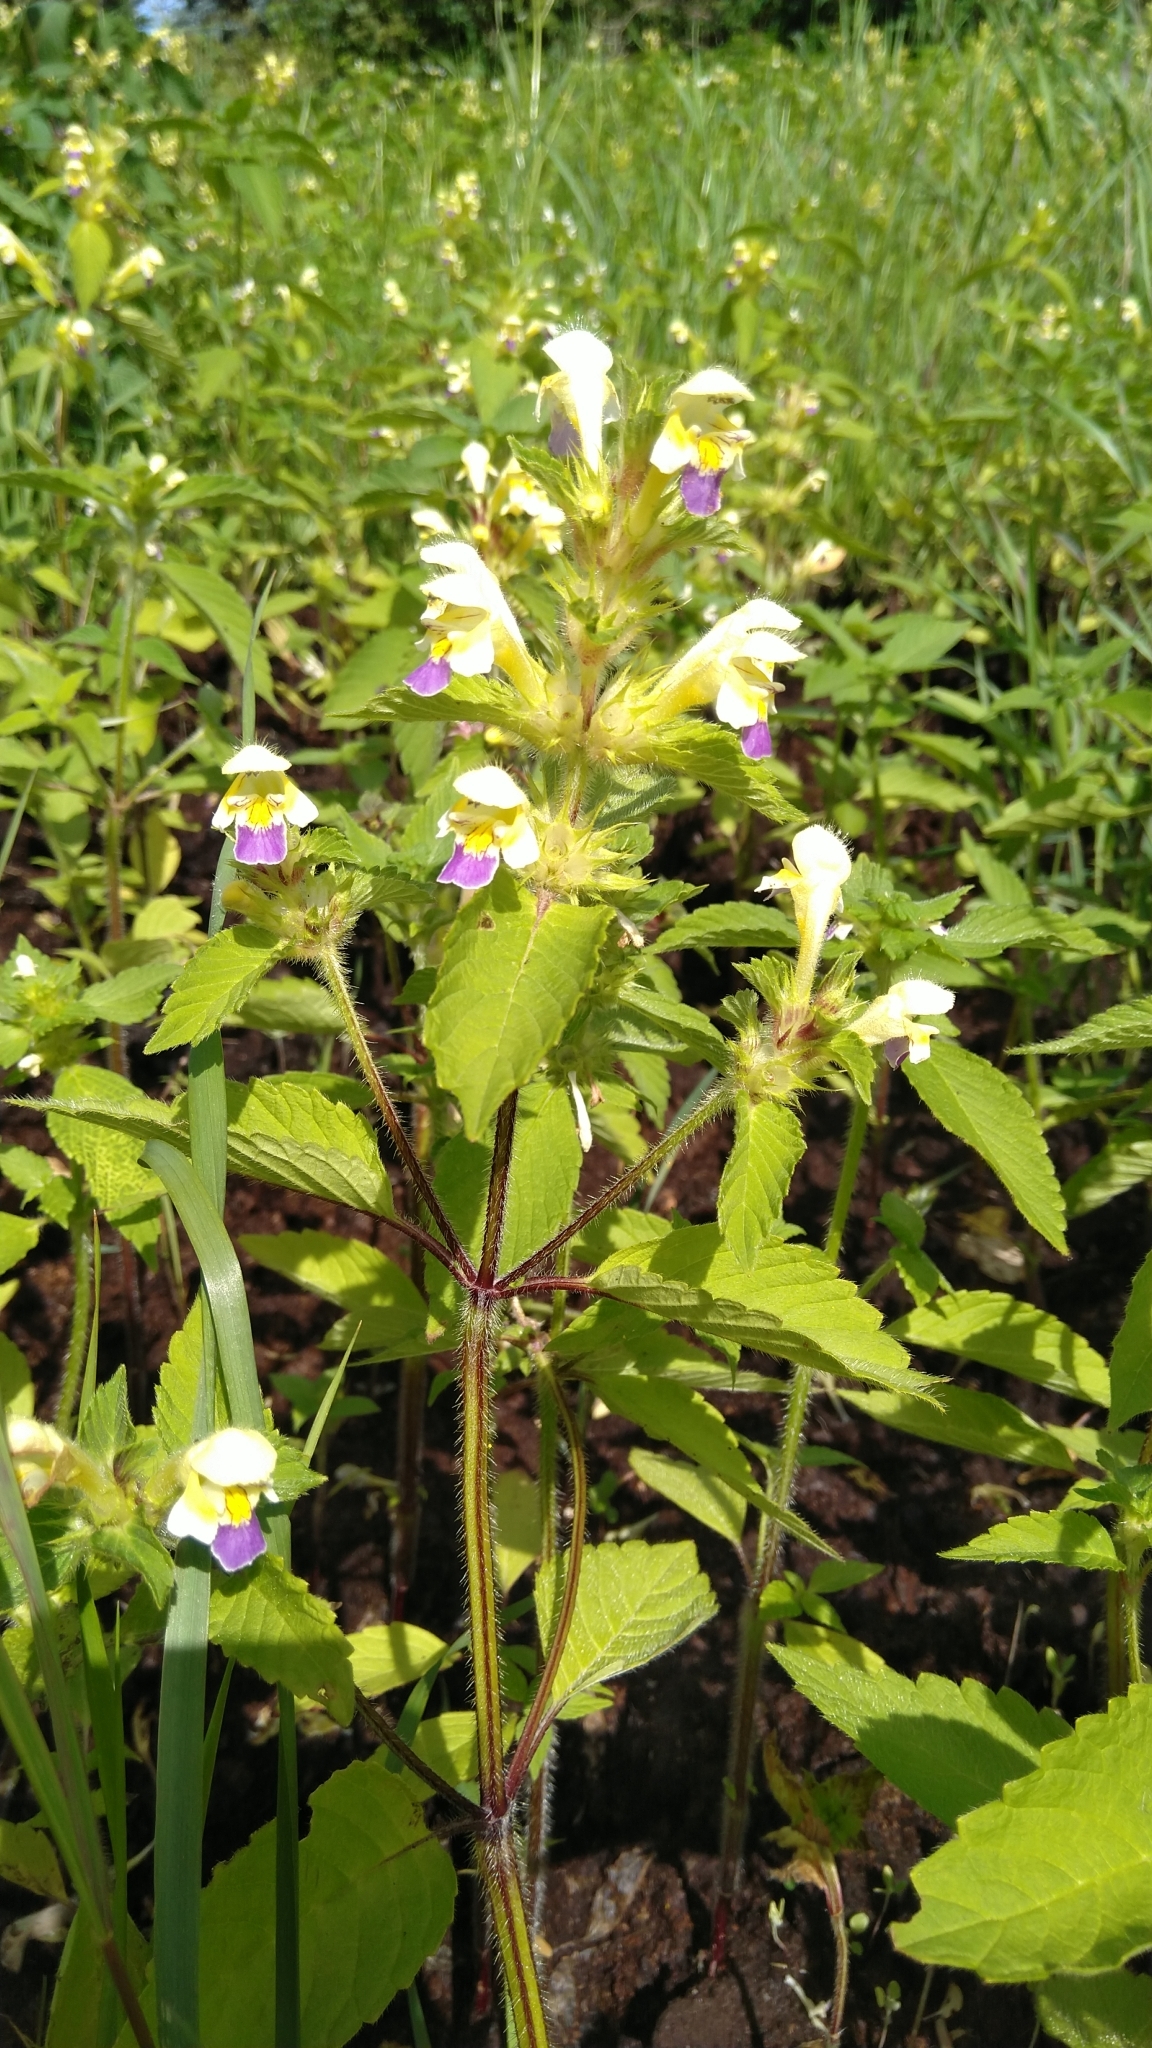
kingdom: Plantae
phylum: Tracheophyta
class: Magnoliopsida
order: Lamiales
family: Lamiaceae
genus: Galeopsis
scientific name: Galeopsis speciosa
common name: Large-flowered hemp-nettle
